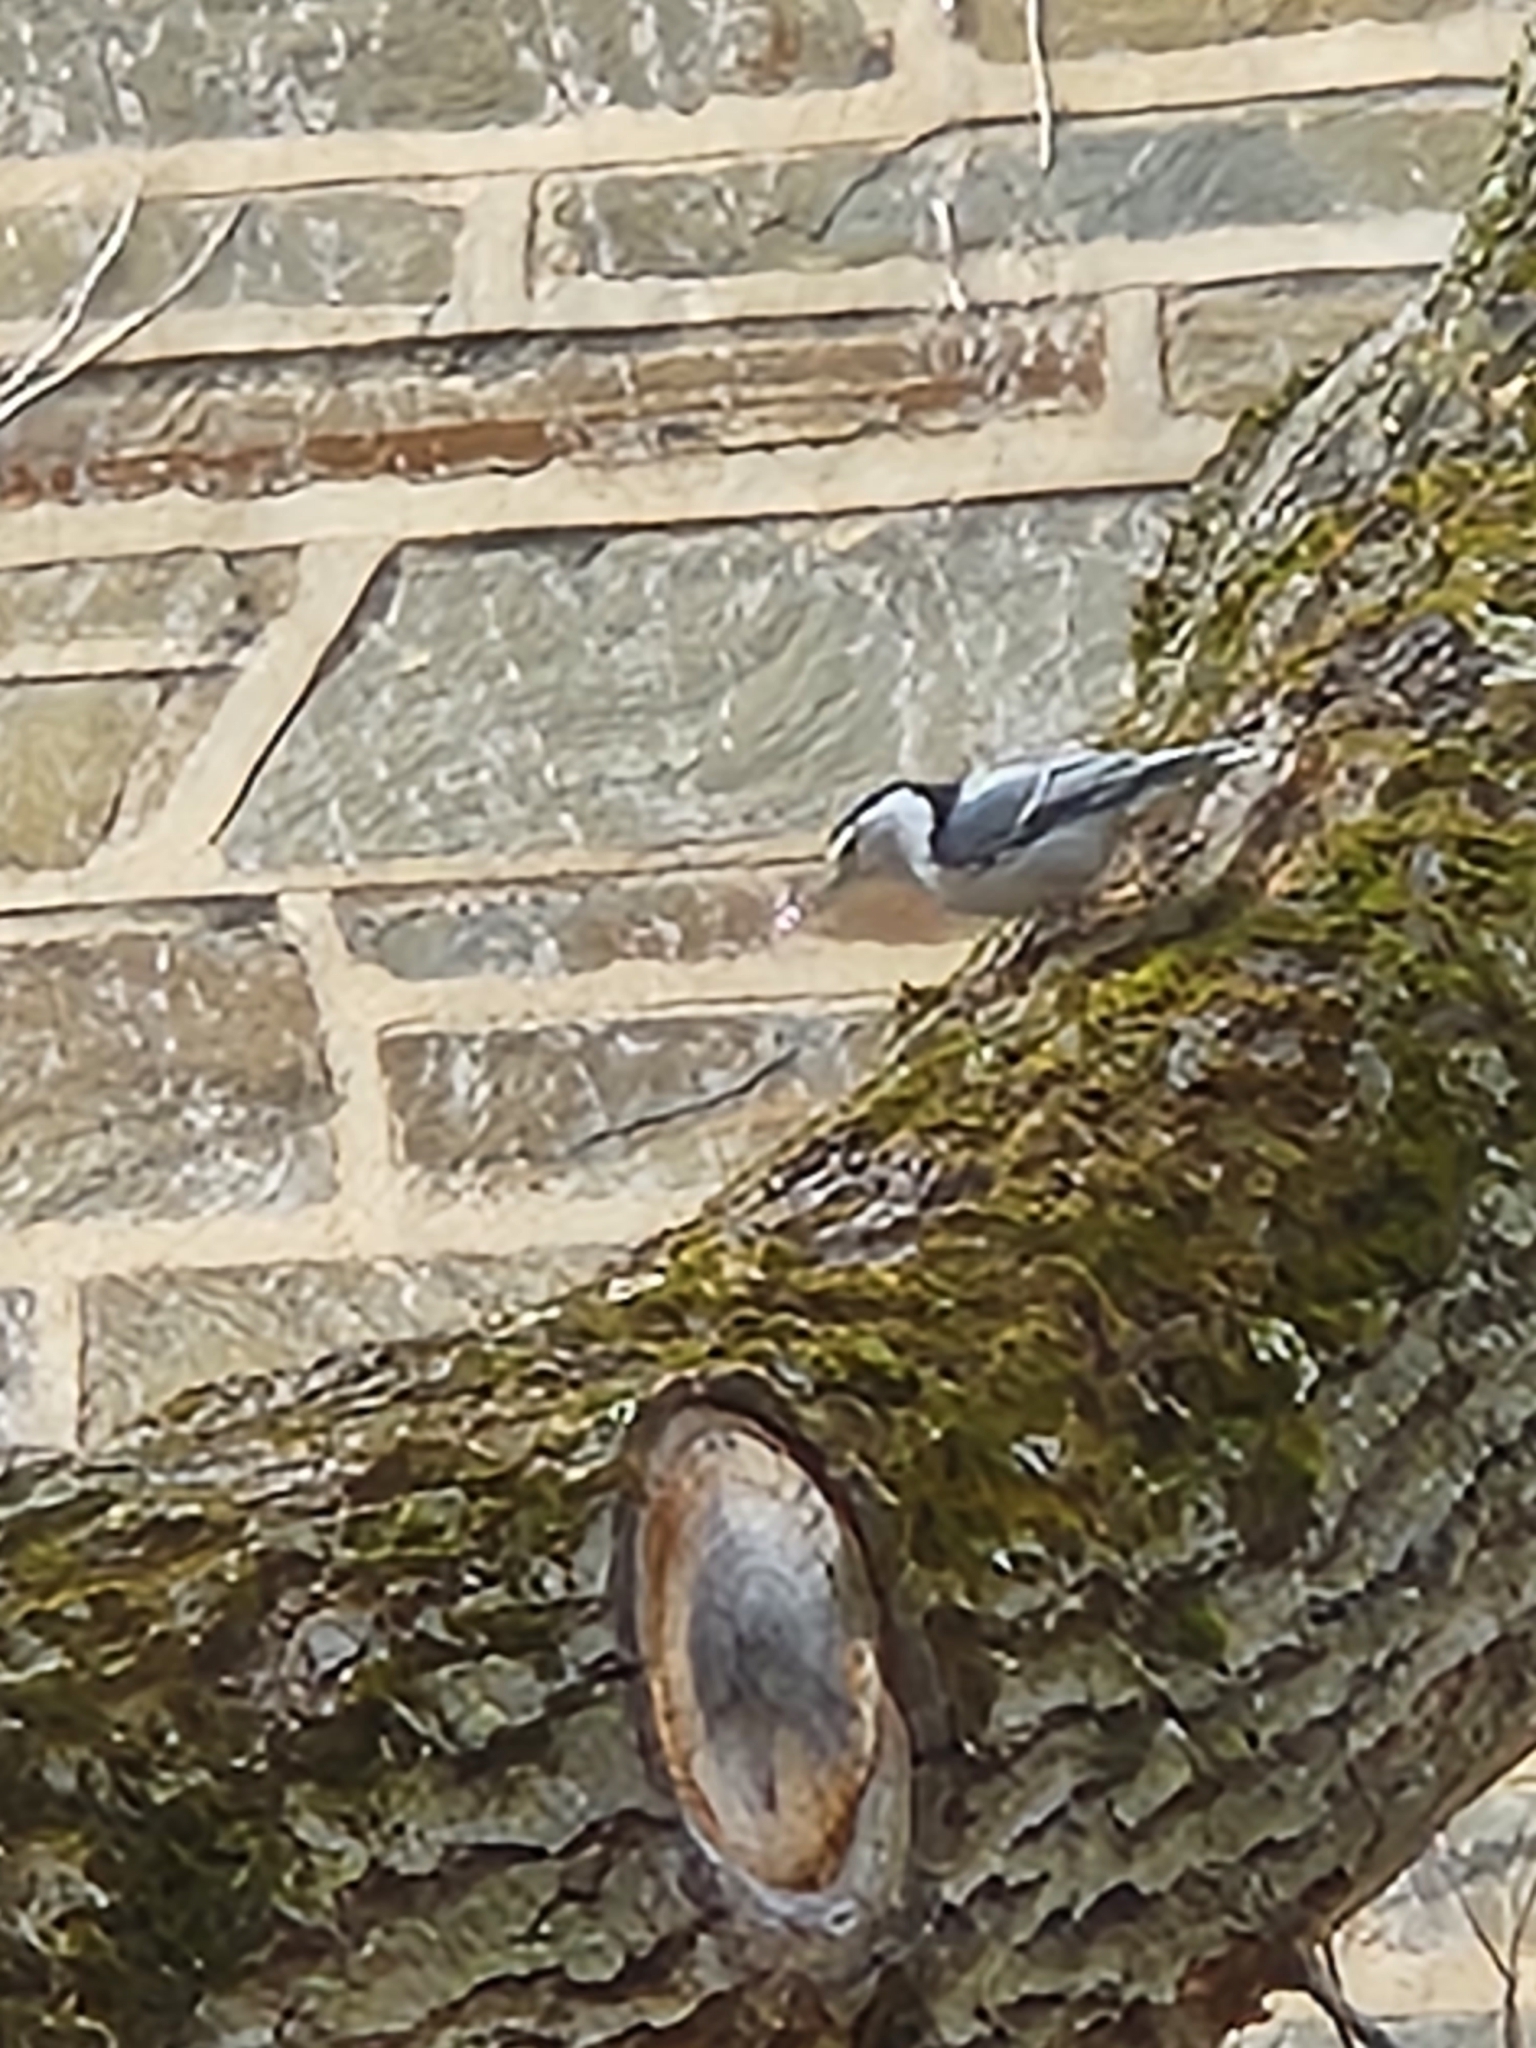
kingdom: Animalia
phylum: Chordata
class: Aves
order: Passeriformes
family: Sittidae
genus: Sitta
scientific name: Sitta carolinensis
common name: White-breasted nuthatch
